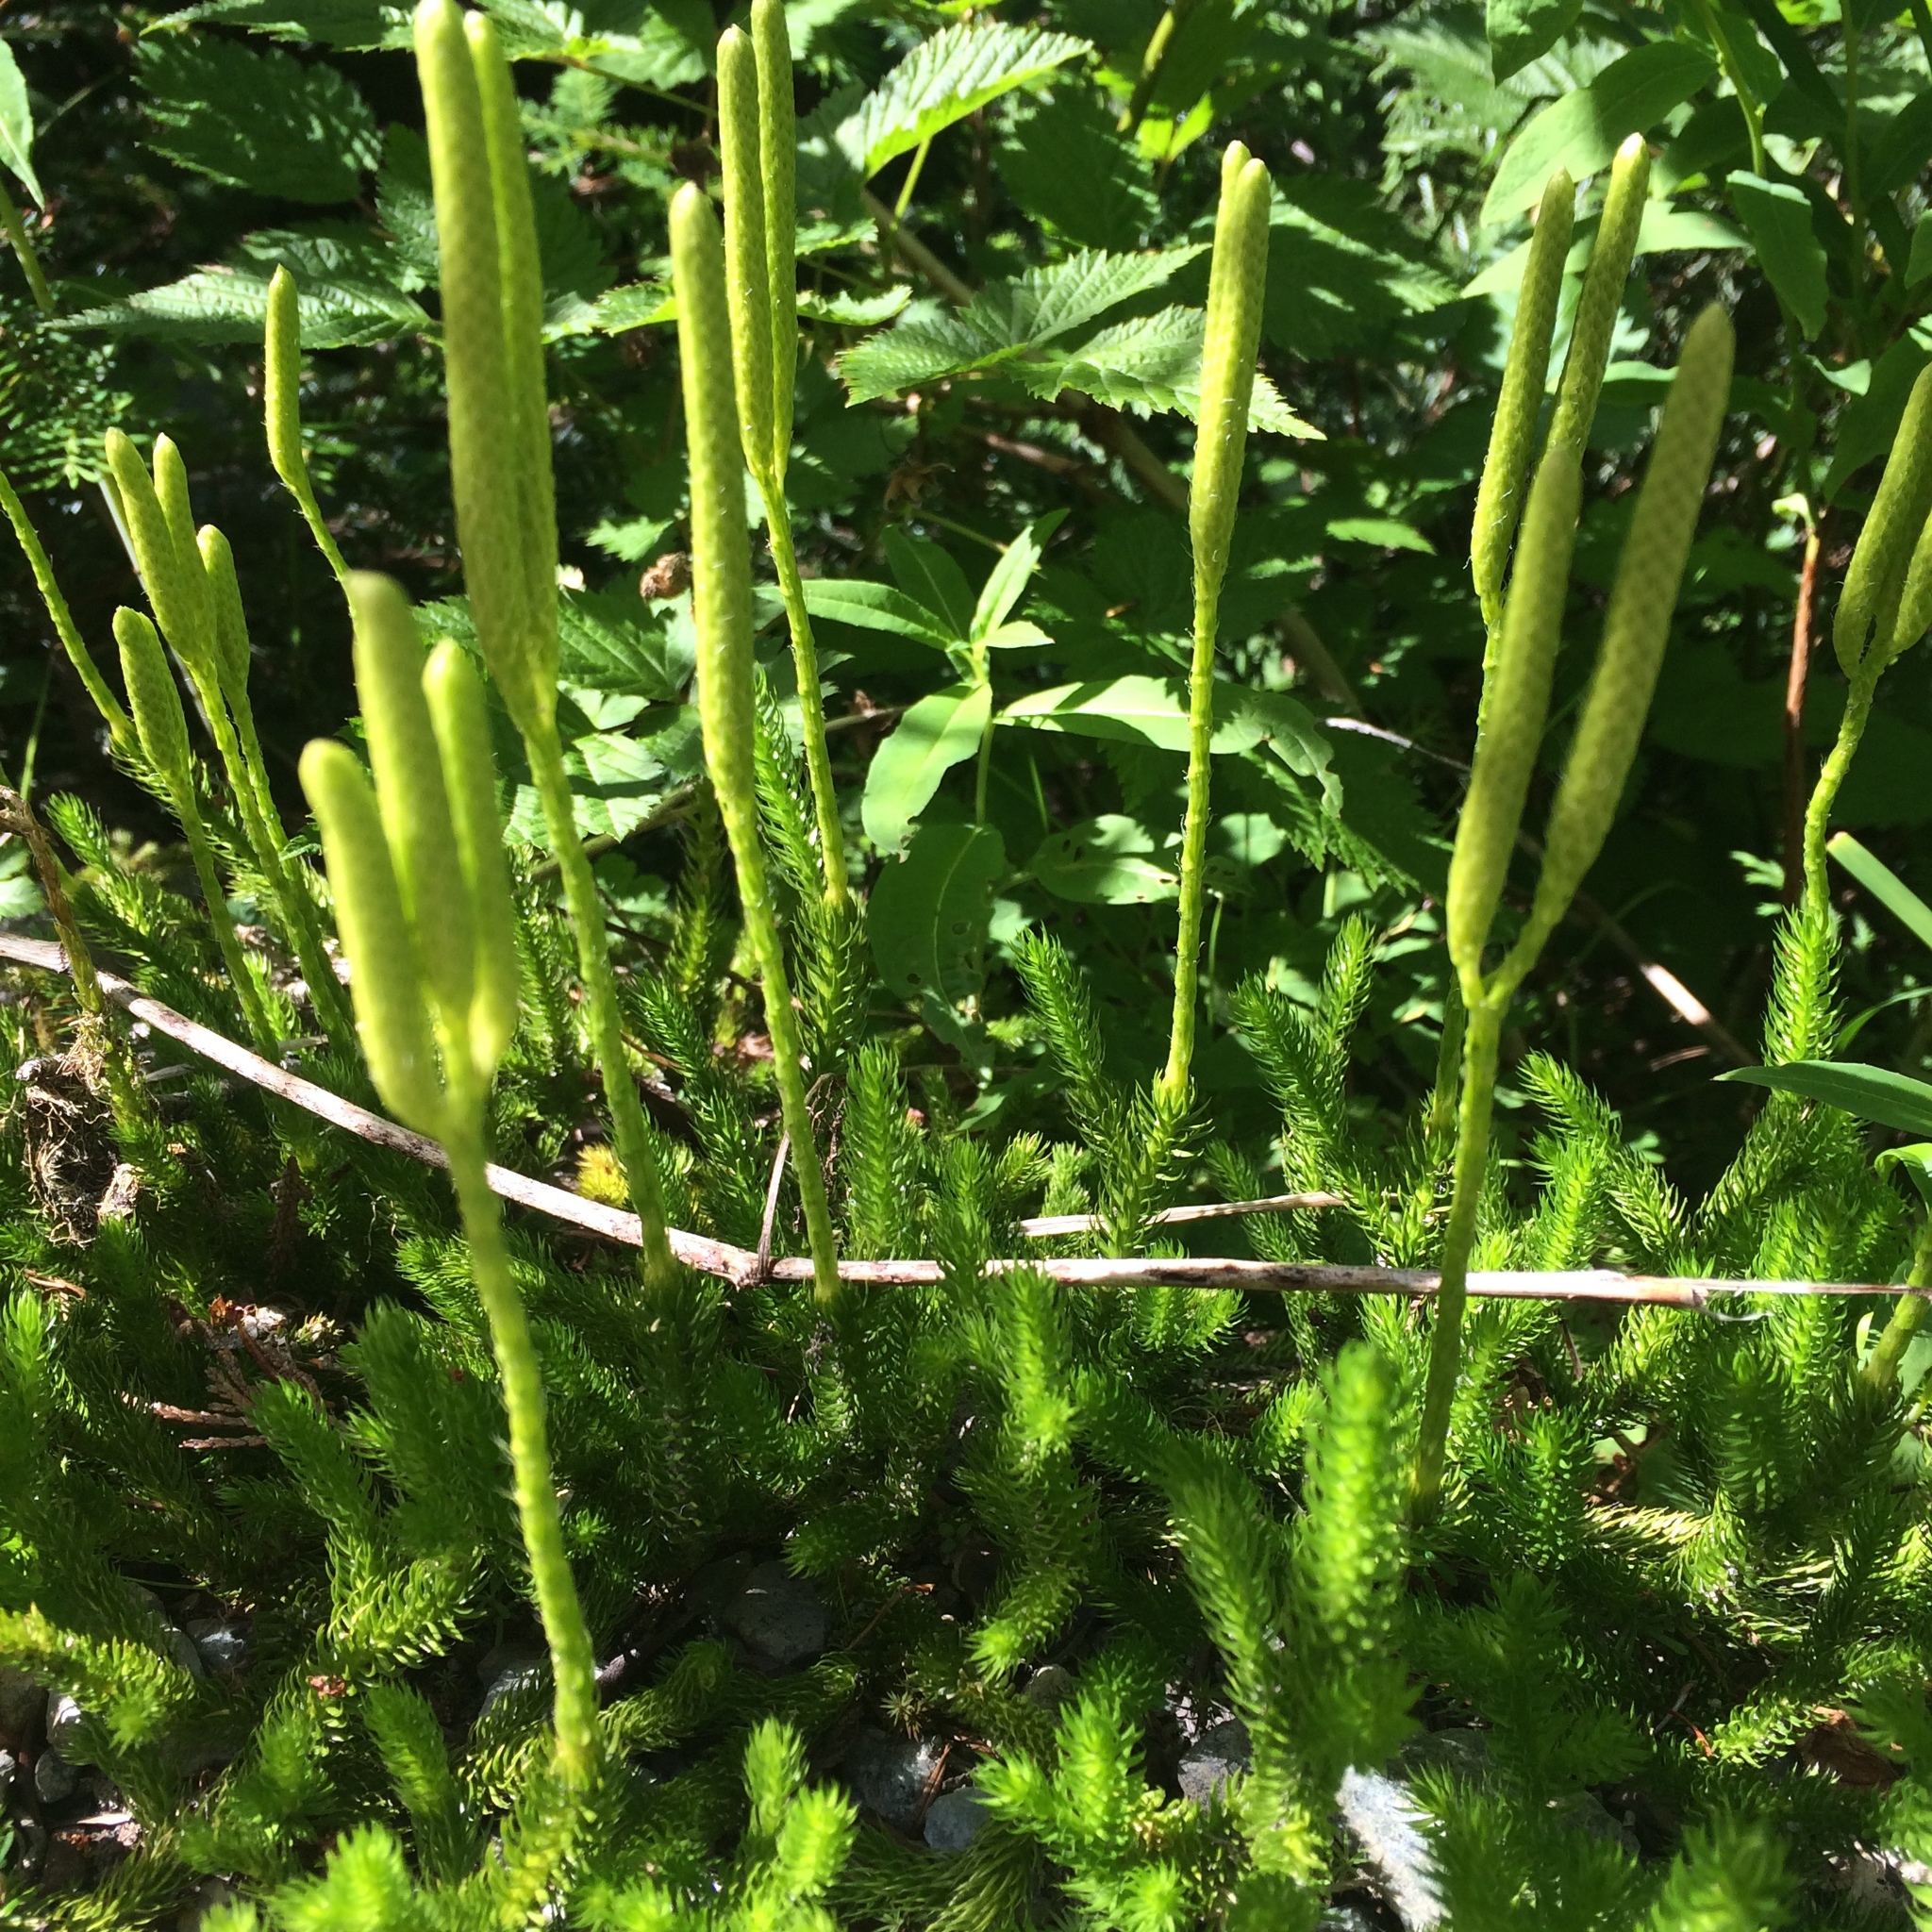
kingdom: Plantae
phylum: Tracheophyta
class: Lycopodiopsida
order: Lycopodiales
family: Lycopodiaceae
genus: Lycopodium
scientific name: Lycopodium clavatum
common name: Stag's-horn clubmoss
